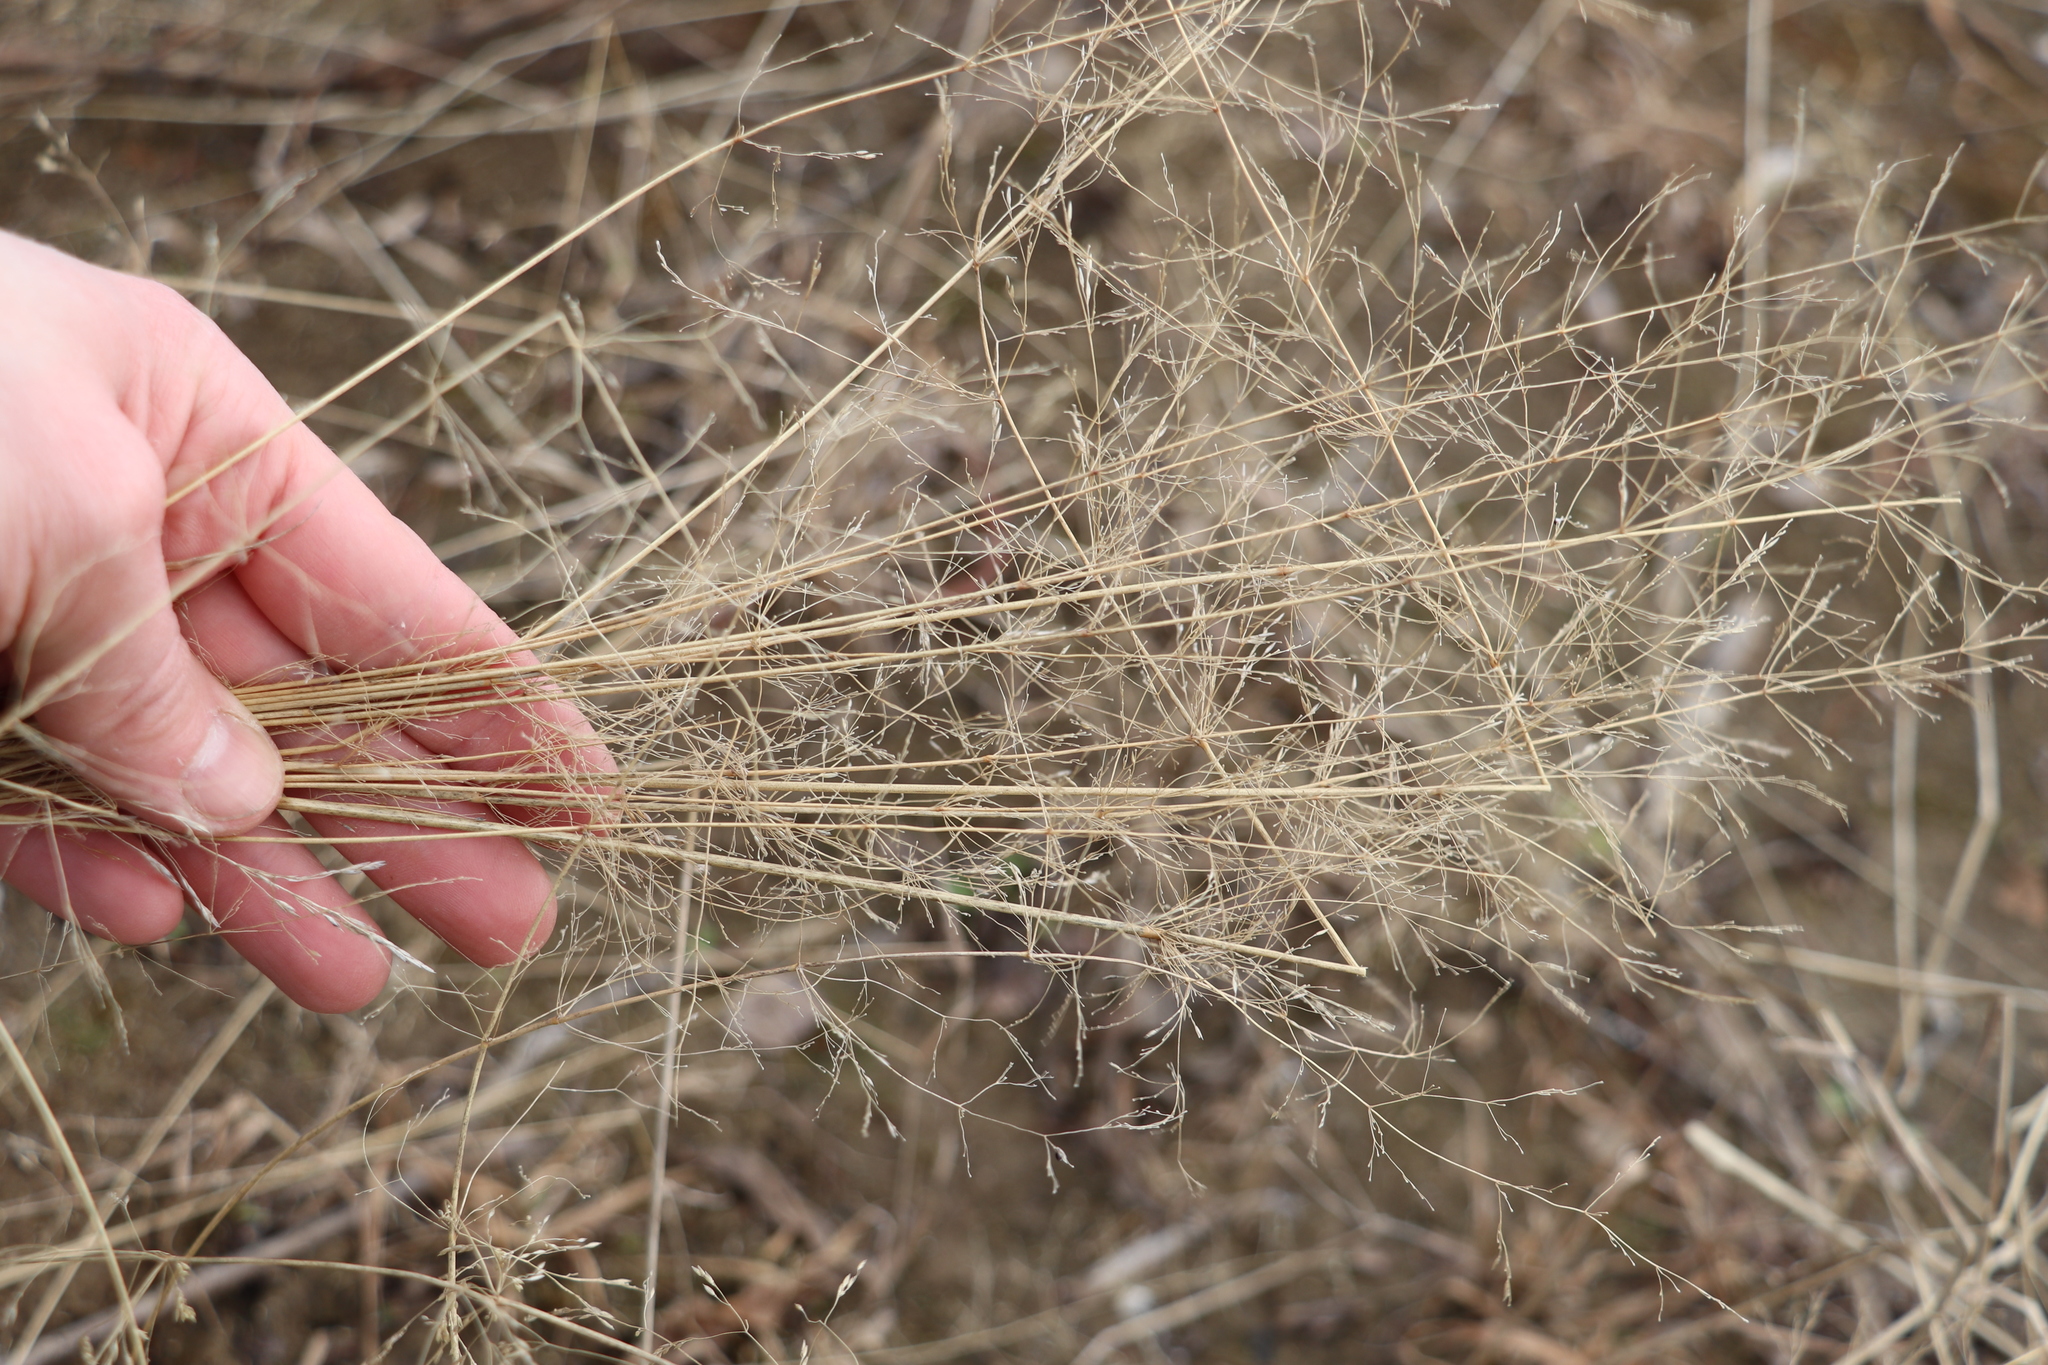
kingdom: Plantae
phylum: Tracheophyta
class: Liliopsida
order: Poales
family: Poaceae
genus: Agrostis
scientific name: Agrostis gigantea
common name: Black bent
